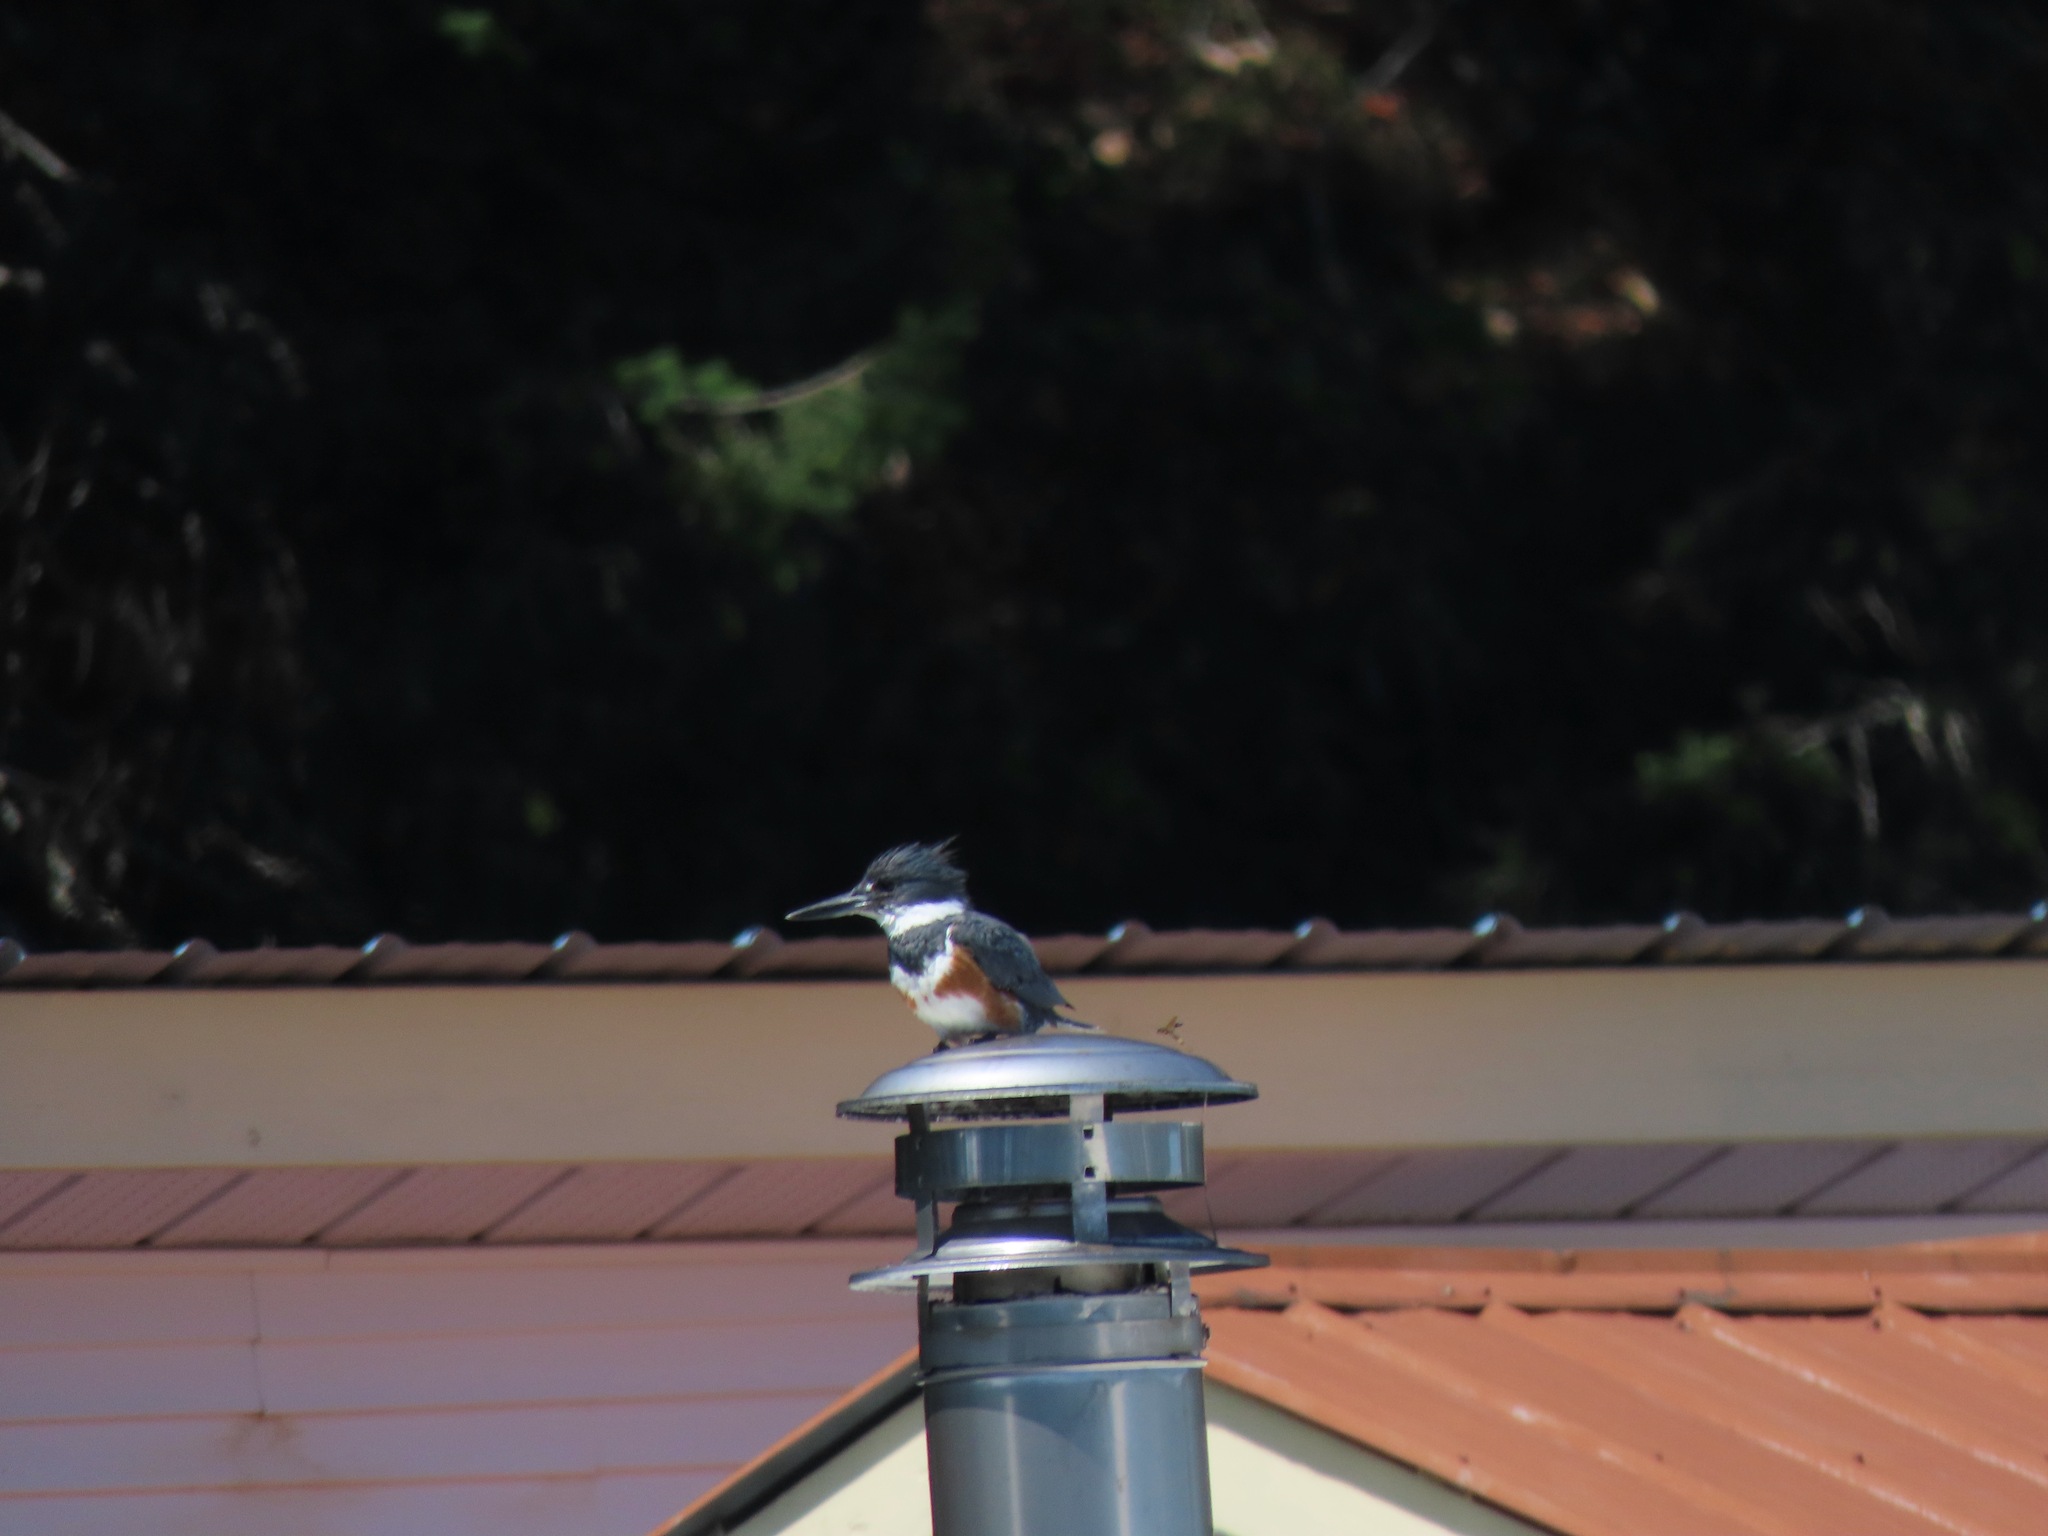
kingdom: Animalia
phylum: Chordata
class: Aves
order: Coraciiformes
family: Alcedinidae
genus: Megaceryle
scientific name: Megaceryle alcyon
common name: Belted kingfisher
